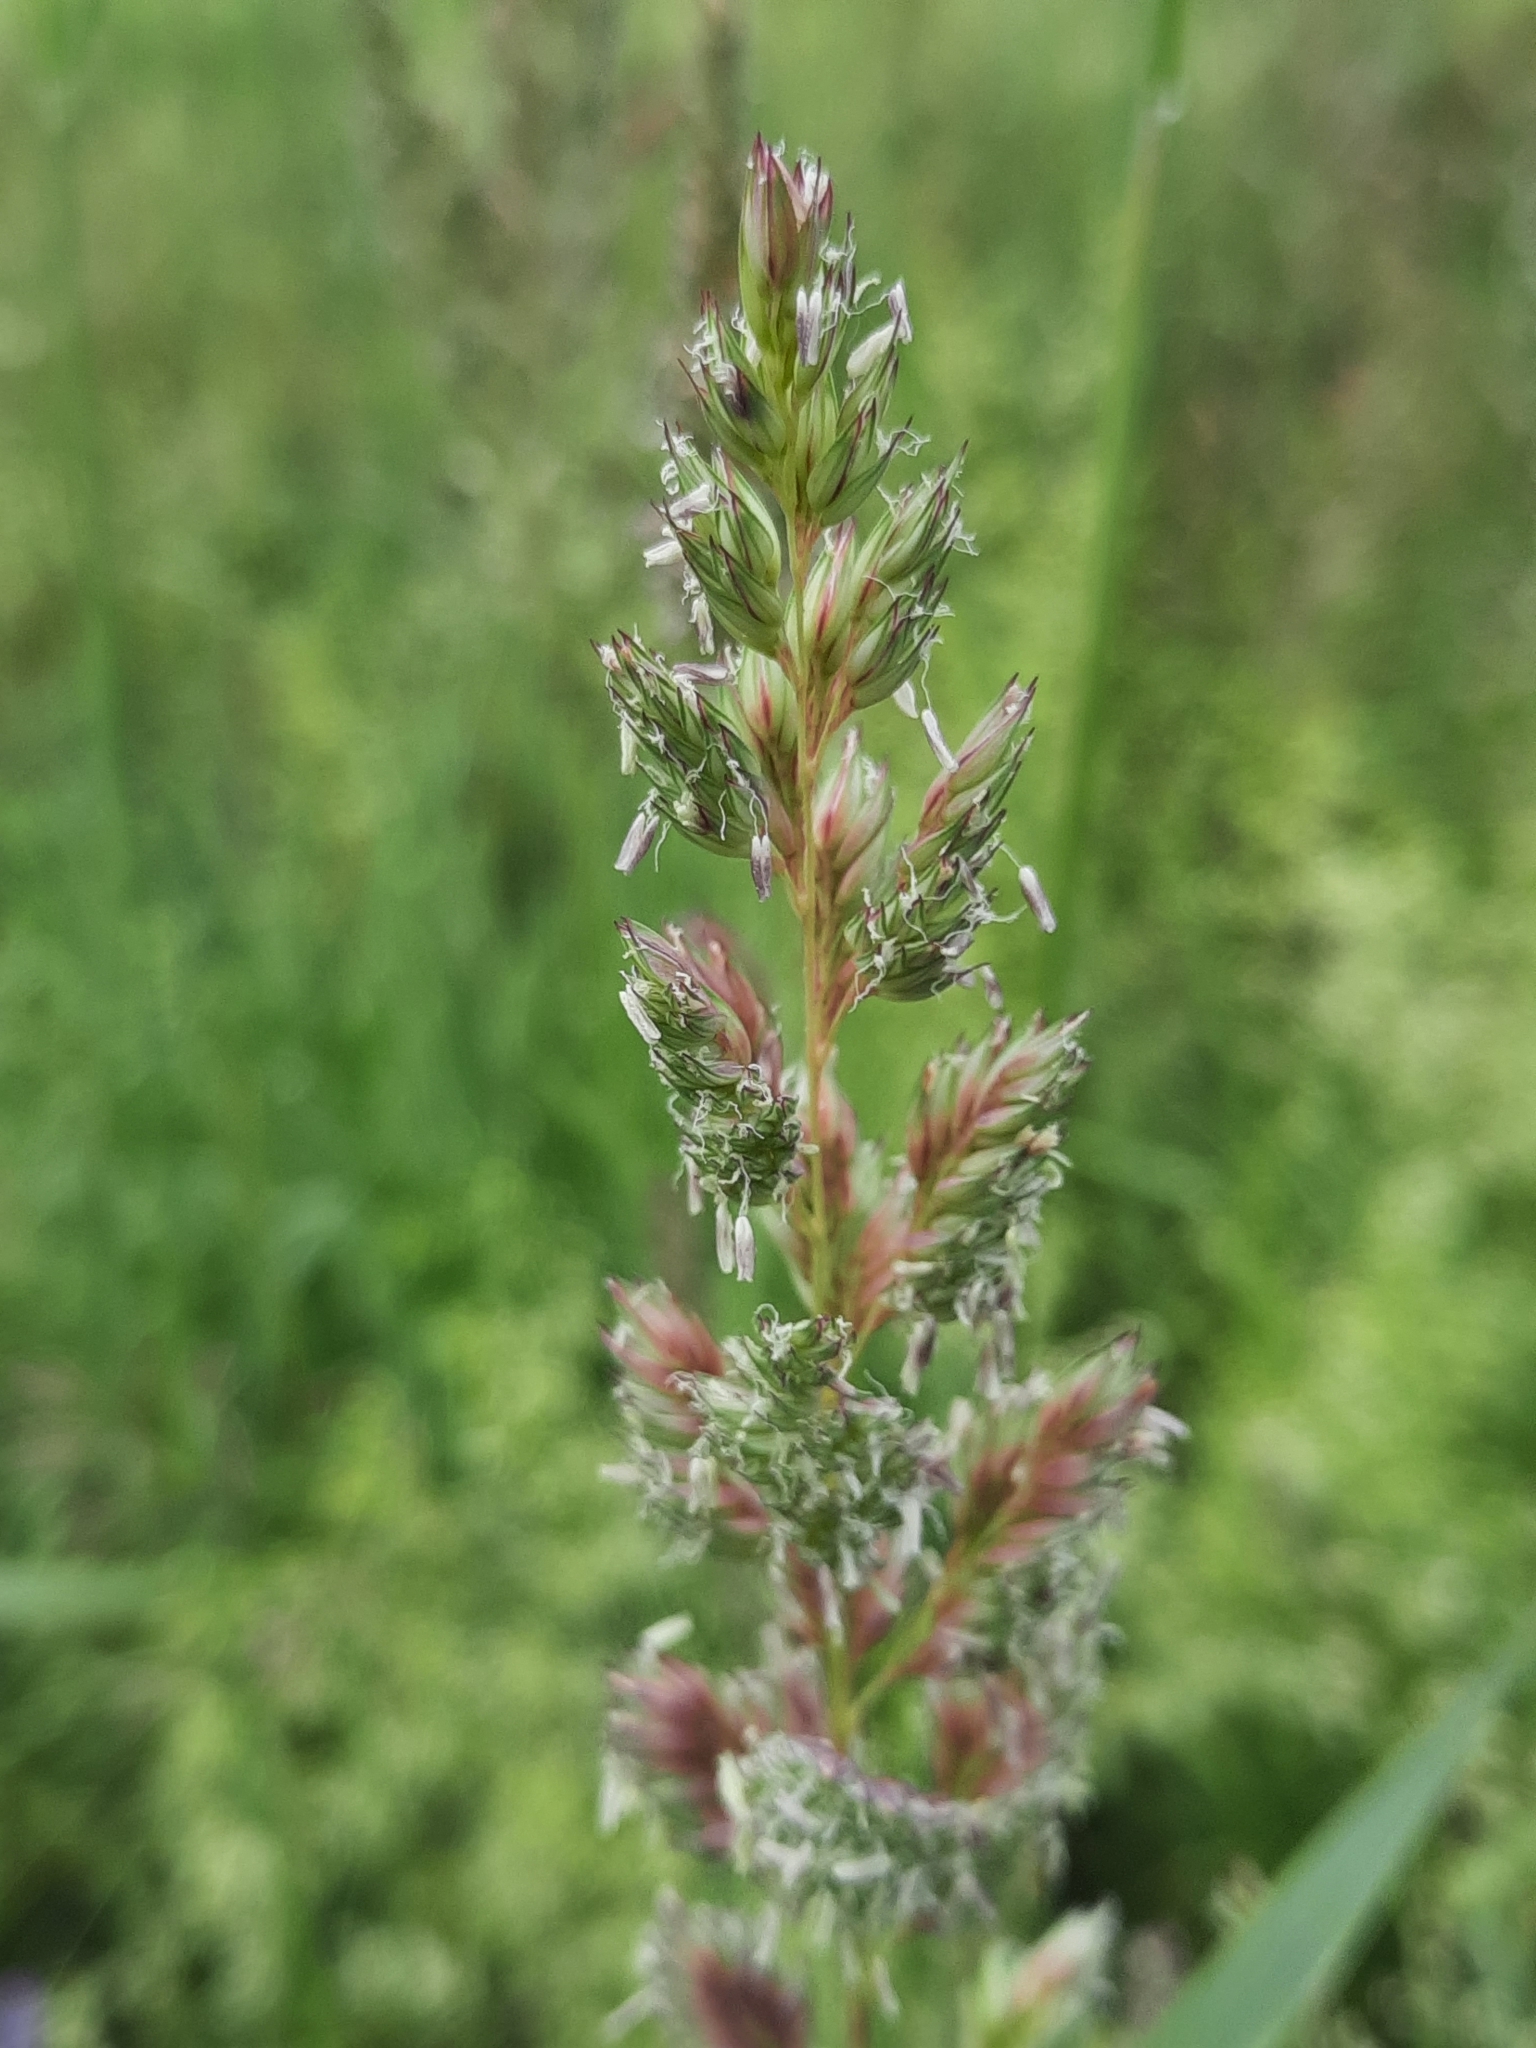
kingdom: Plantae
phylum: Tracheophyta
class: Liliopsida
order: Poales
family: Poaceae
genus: Phalaris
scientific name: Phalaris arundinacea
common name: Reed canary-grass
